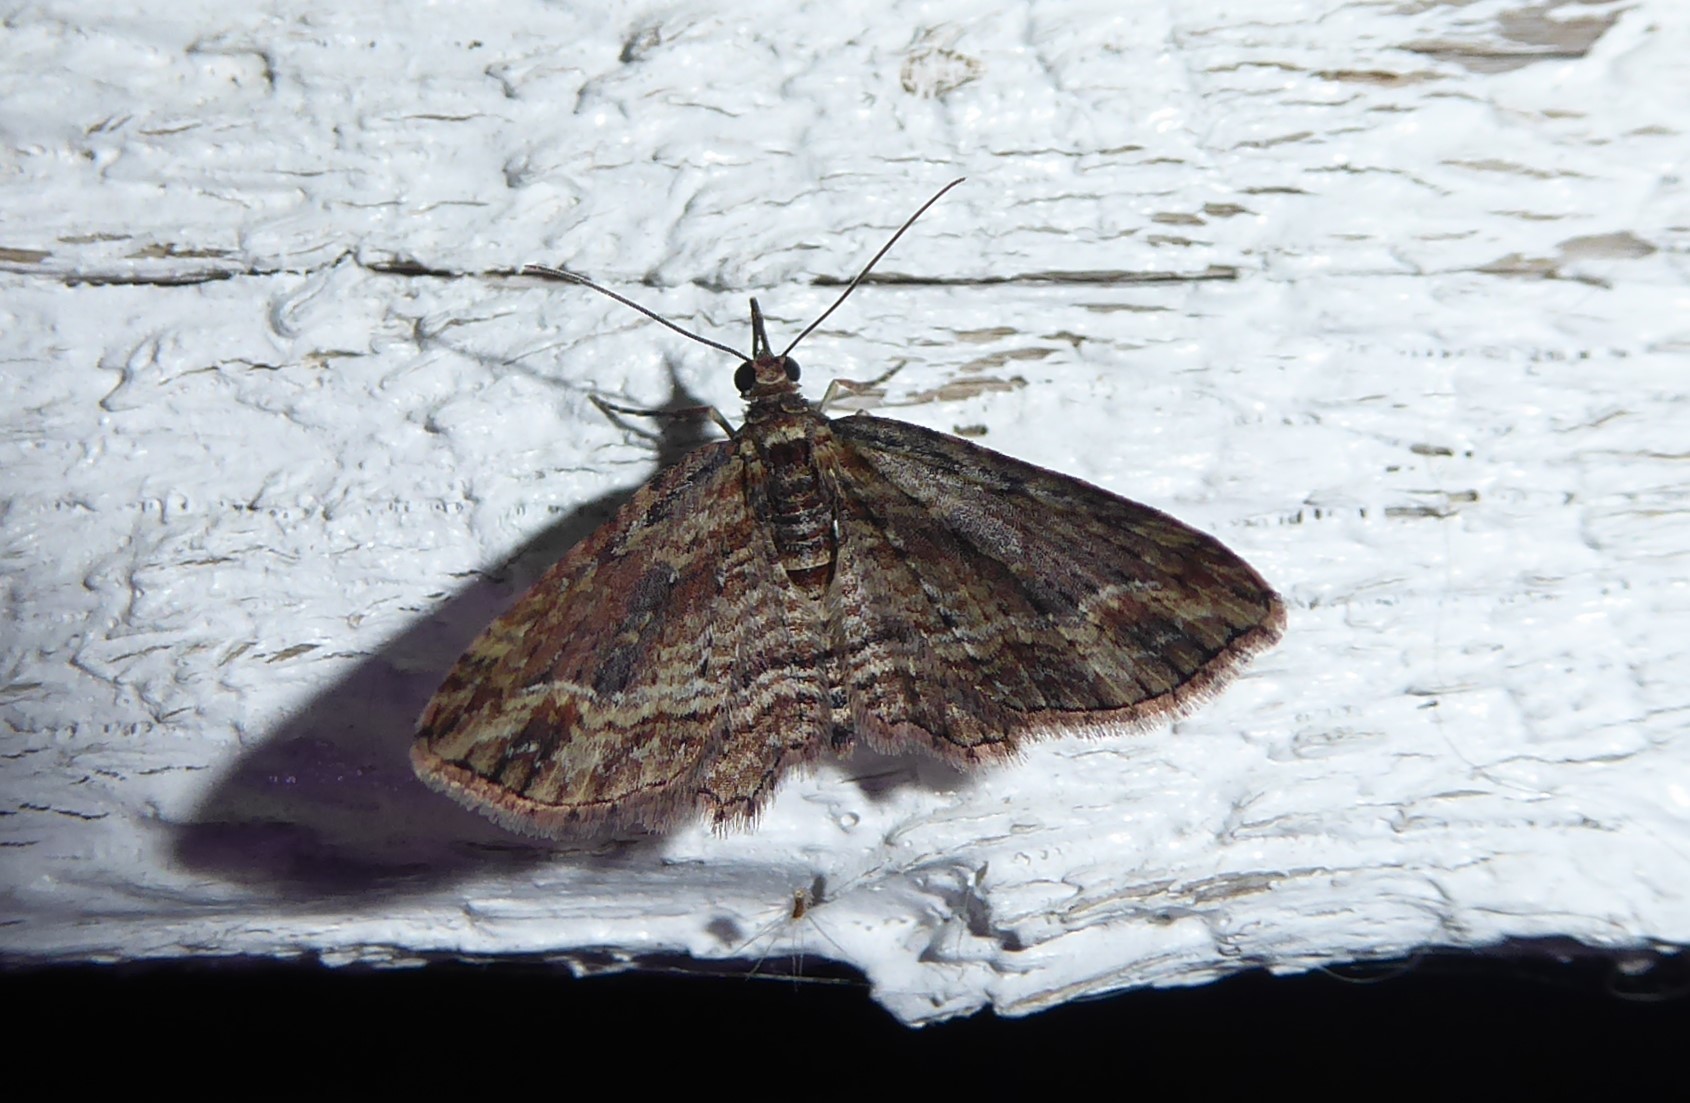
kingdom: Animalia
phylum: Arthropoda
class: Insecta
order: Lepidoptera
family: Geometridae
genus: Chloroclystis
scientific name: Chloroclystis filata
